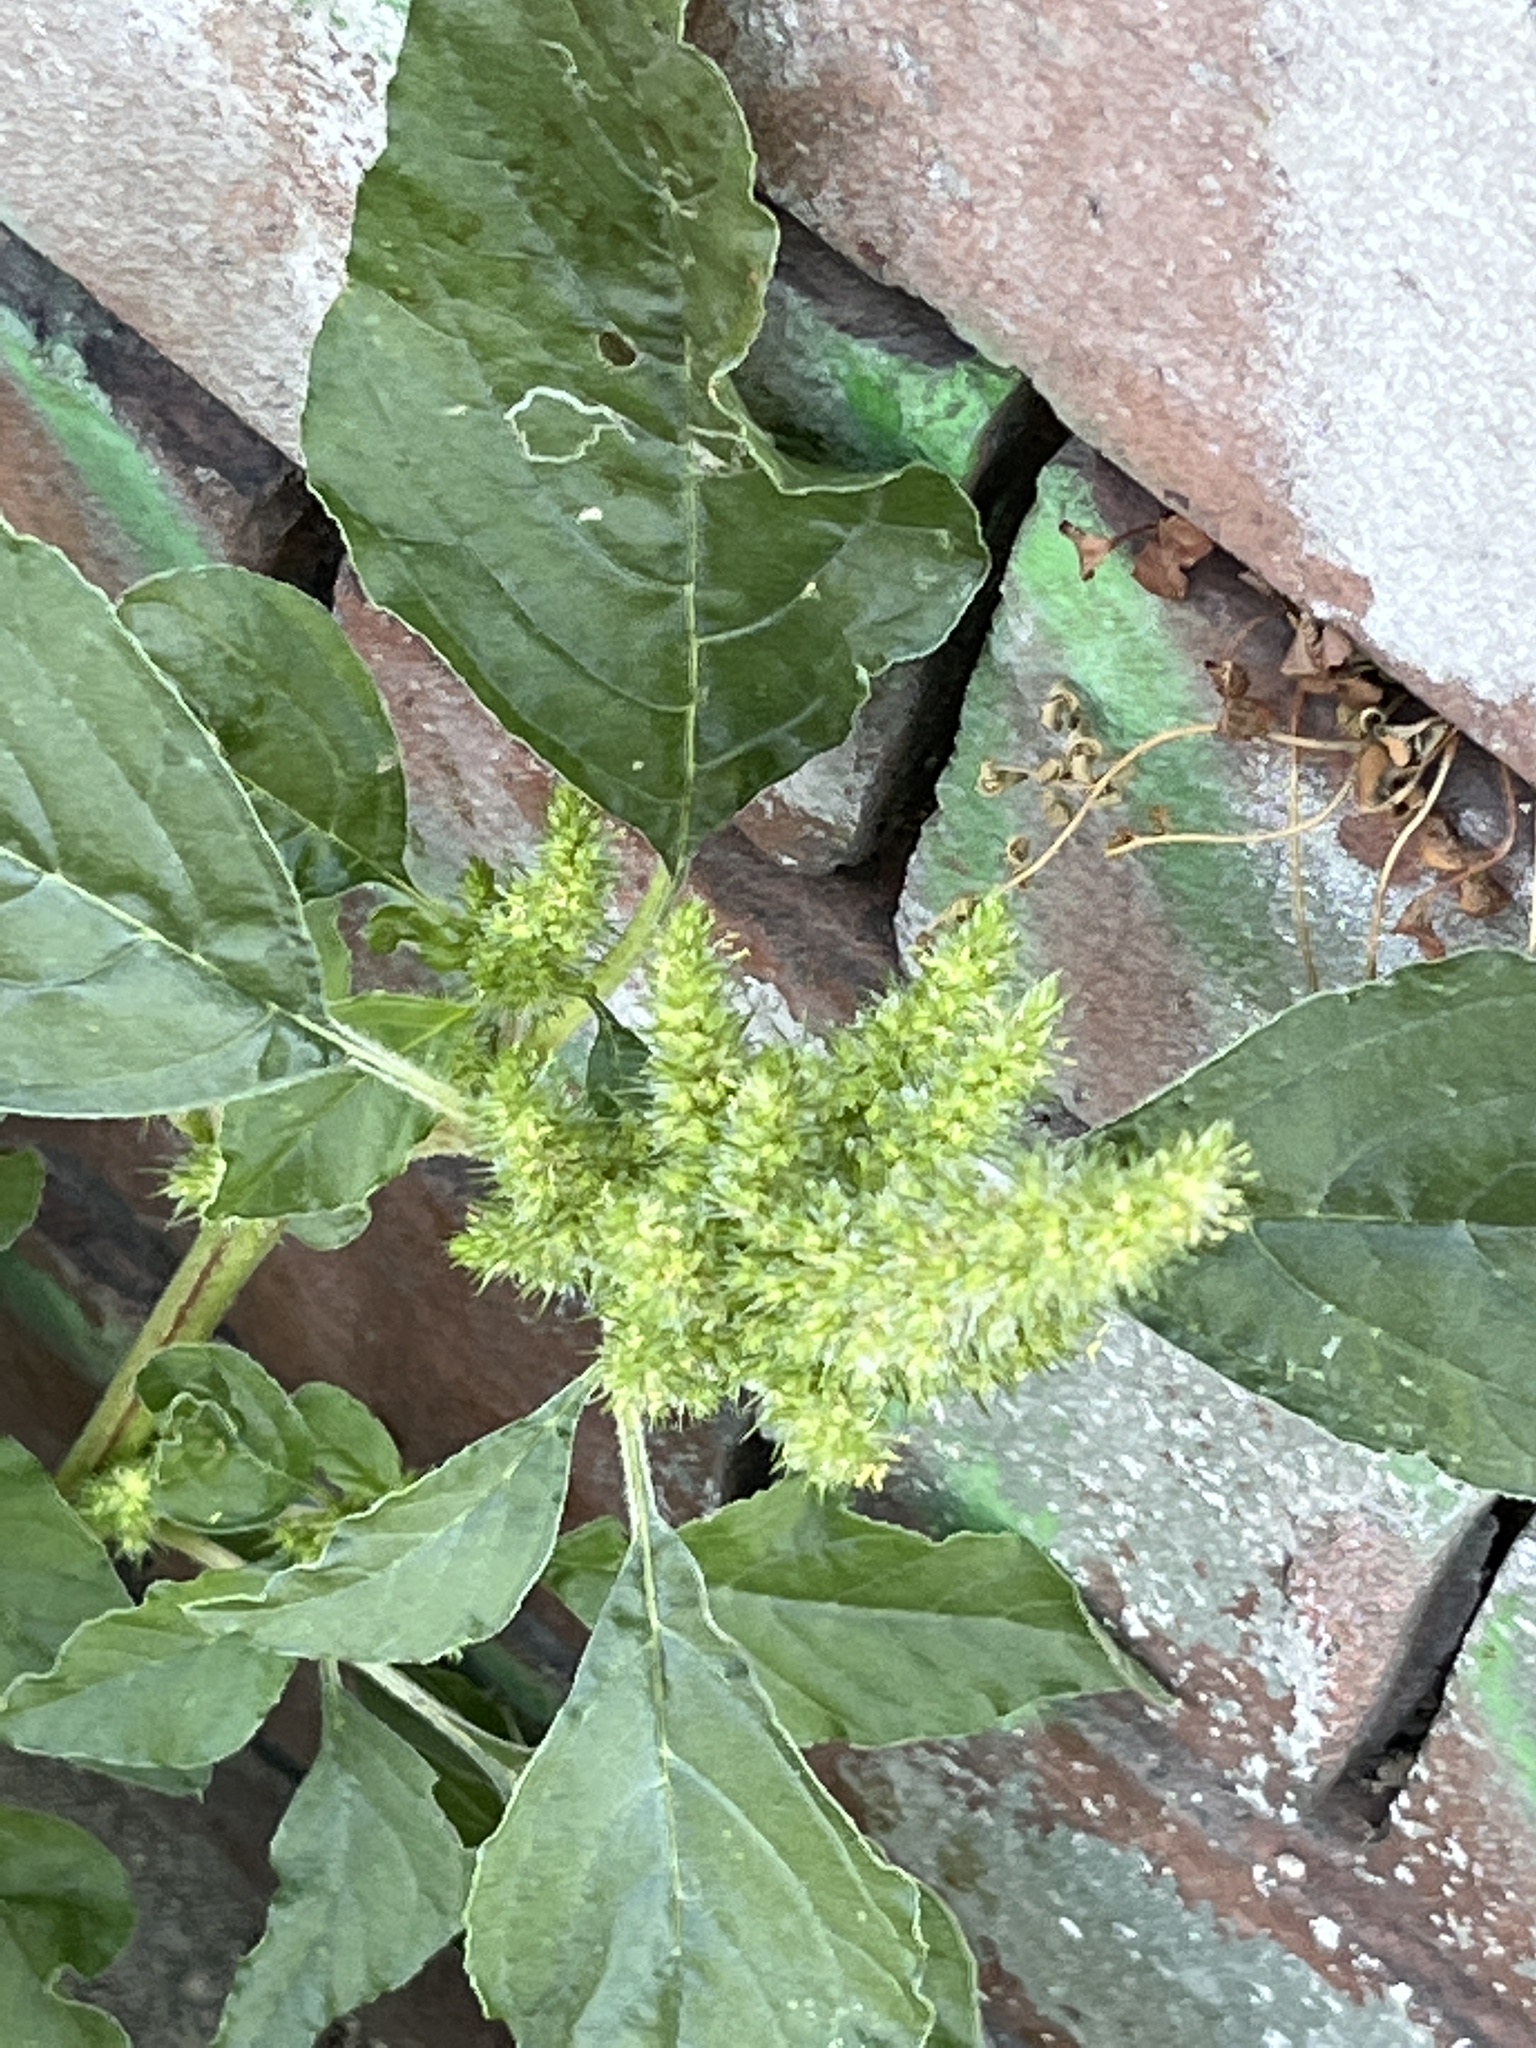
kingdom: Plantae
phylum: Tracheophyta
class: Magnoliopsida
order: Caryophyllales
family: Amaranthaceae
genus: Amaranthus
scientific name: Amaranthus retroflexus
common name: Redroot amaranth
